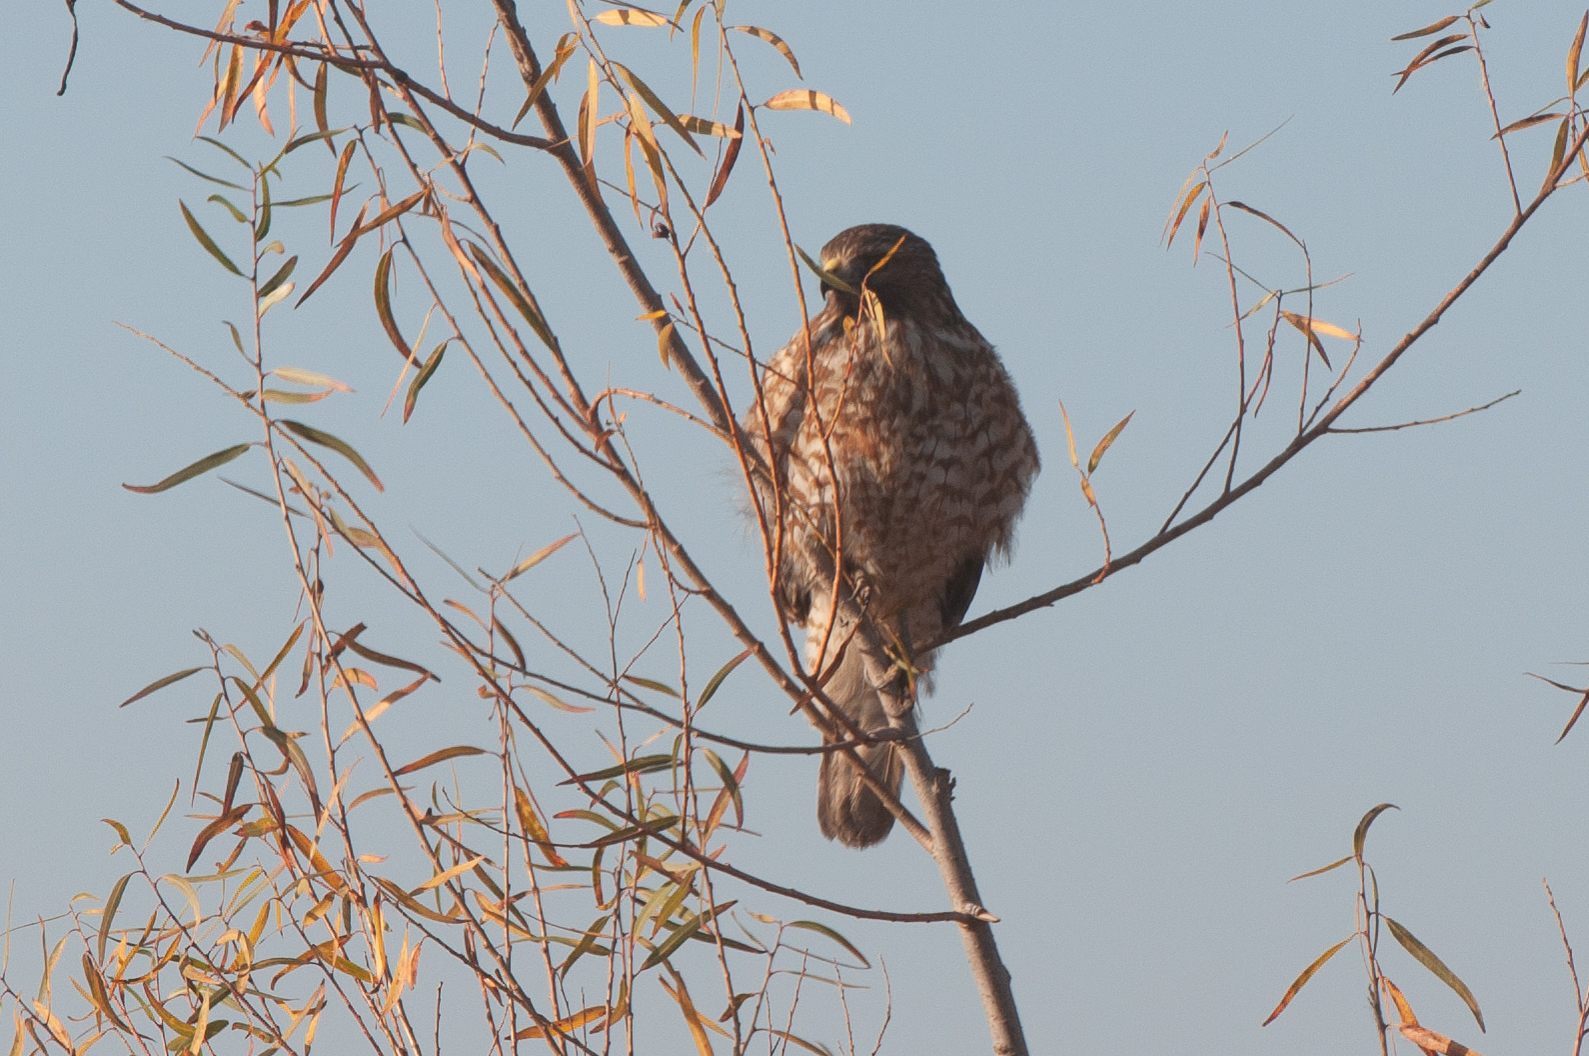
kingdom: Animalia
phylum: Chordata
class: Aves
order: Accipitriformes
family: Accipitridae
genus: Buteo
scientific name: Buteo lineatus
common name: Red-shouldered hawk
